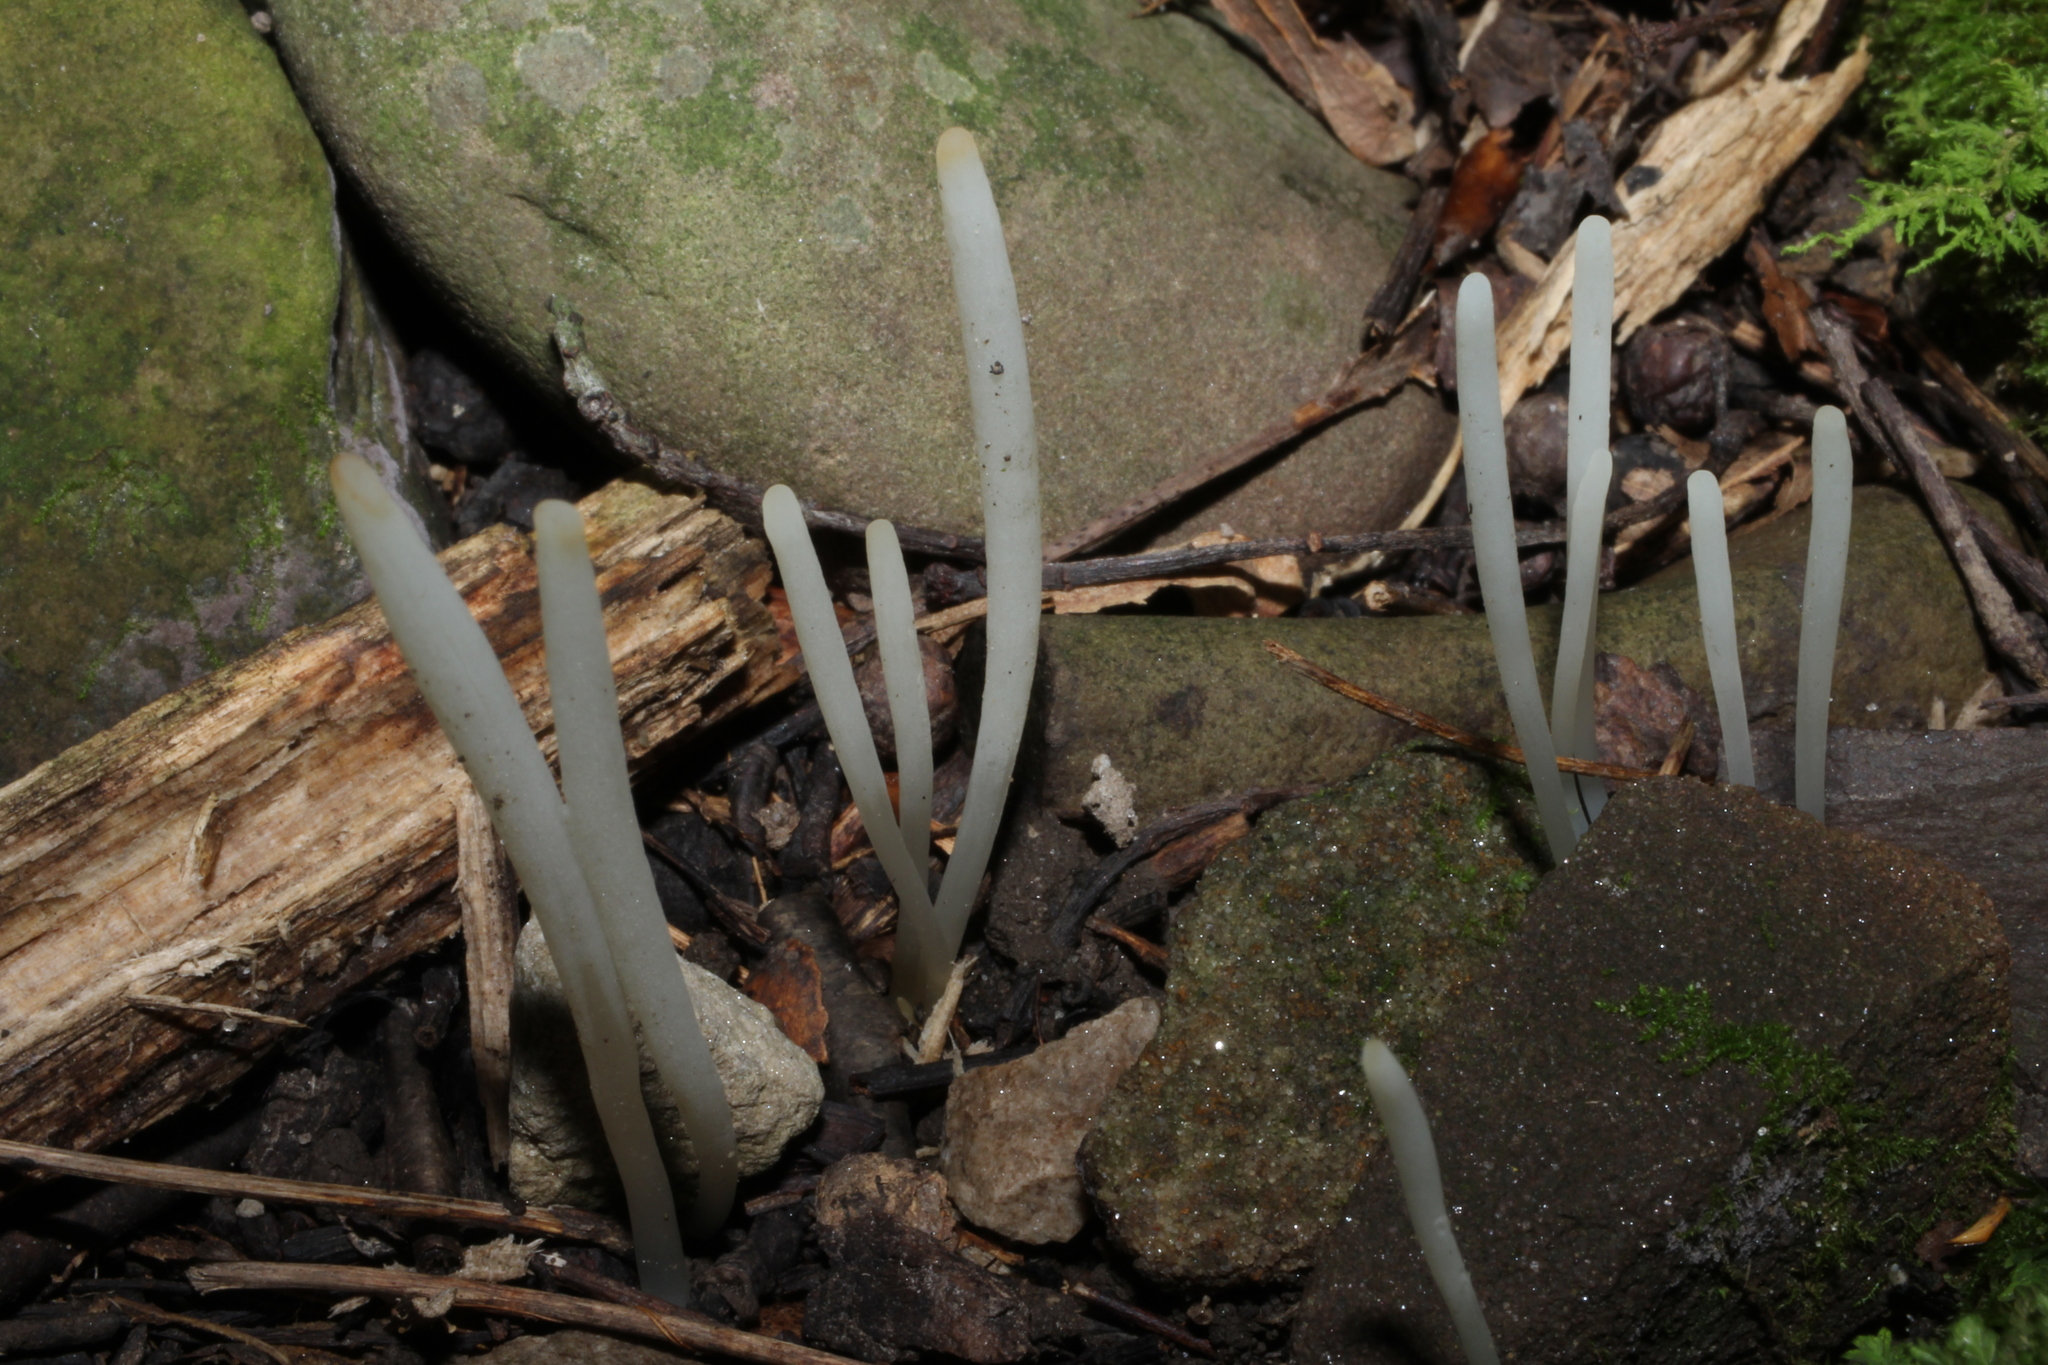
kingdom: Fungi
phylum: Basidiomycota
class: Agaricomycetes
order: Agaricales
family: Clavariaceae
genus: Clavaria
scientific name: Clavaria fragilis
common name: White spindles
